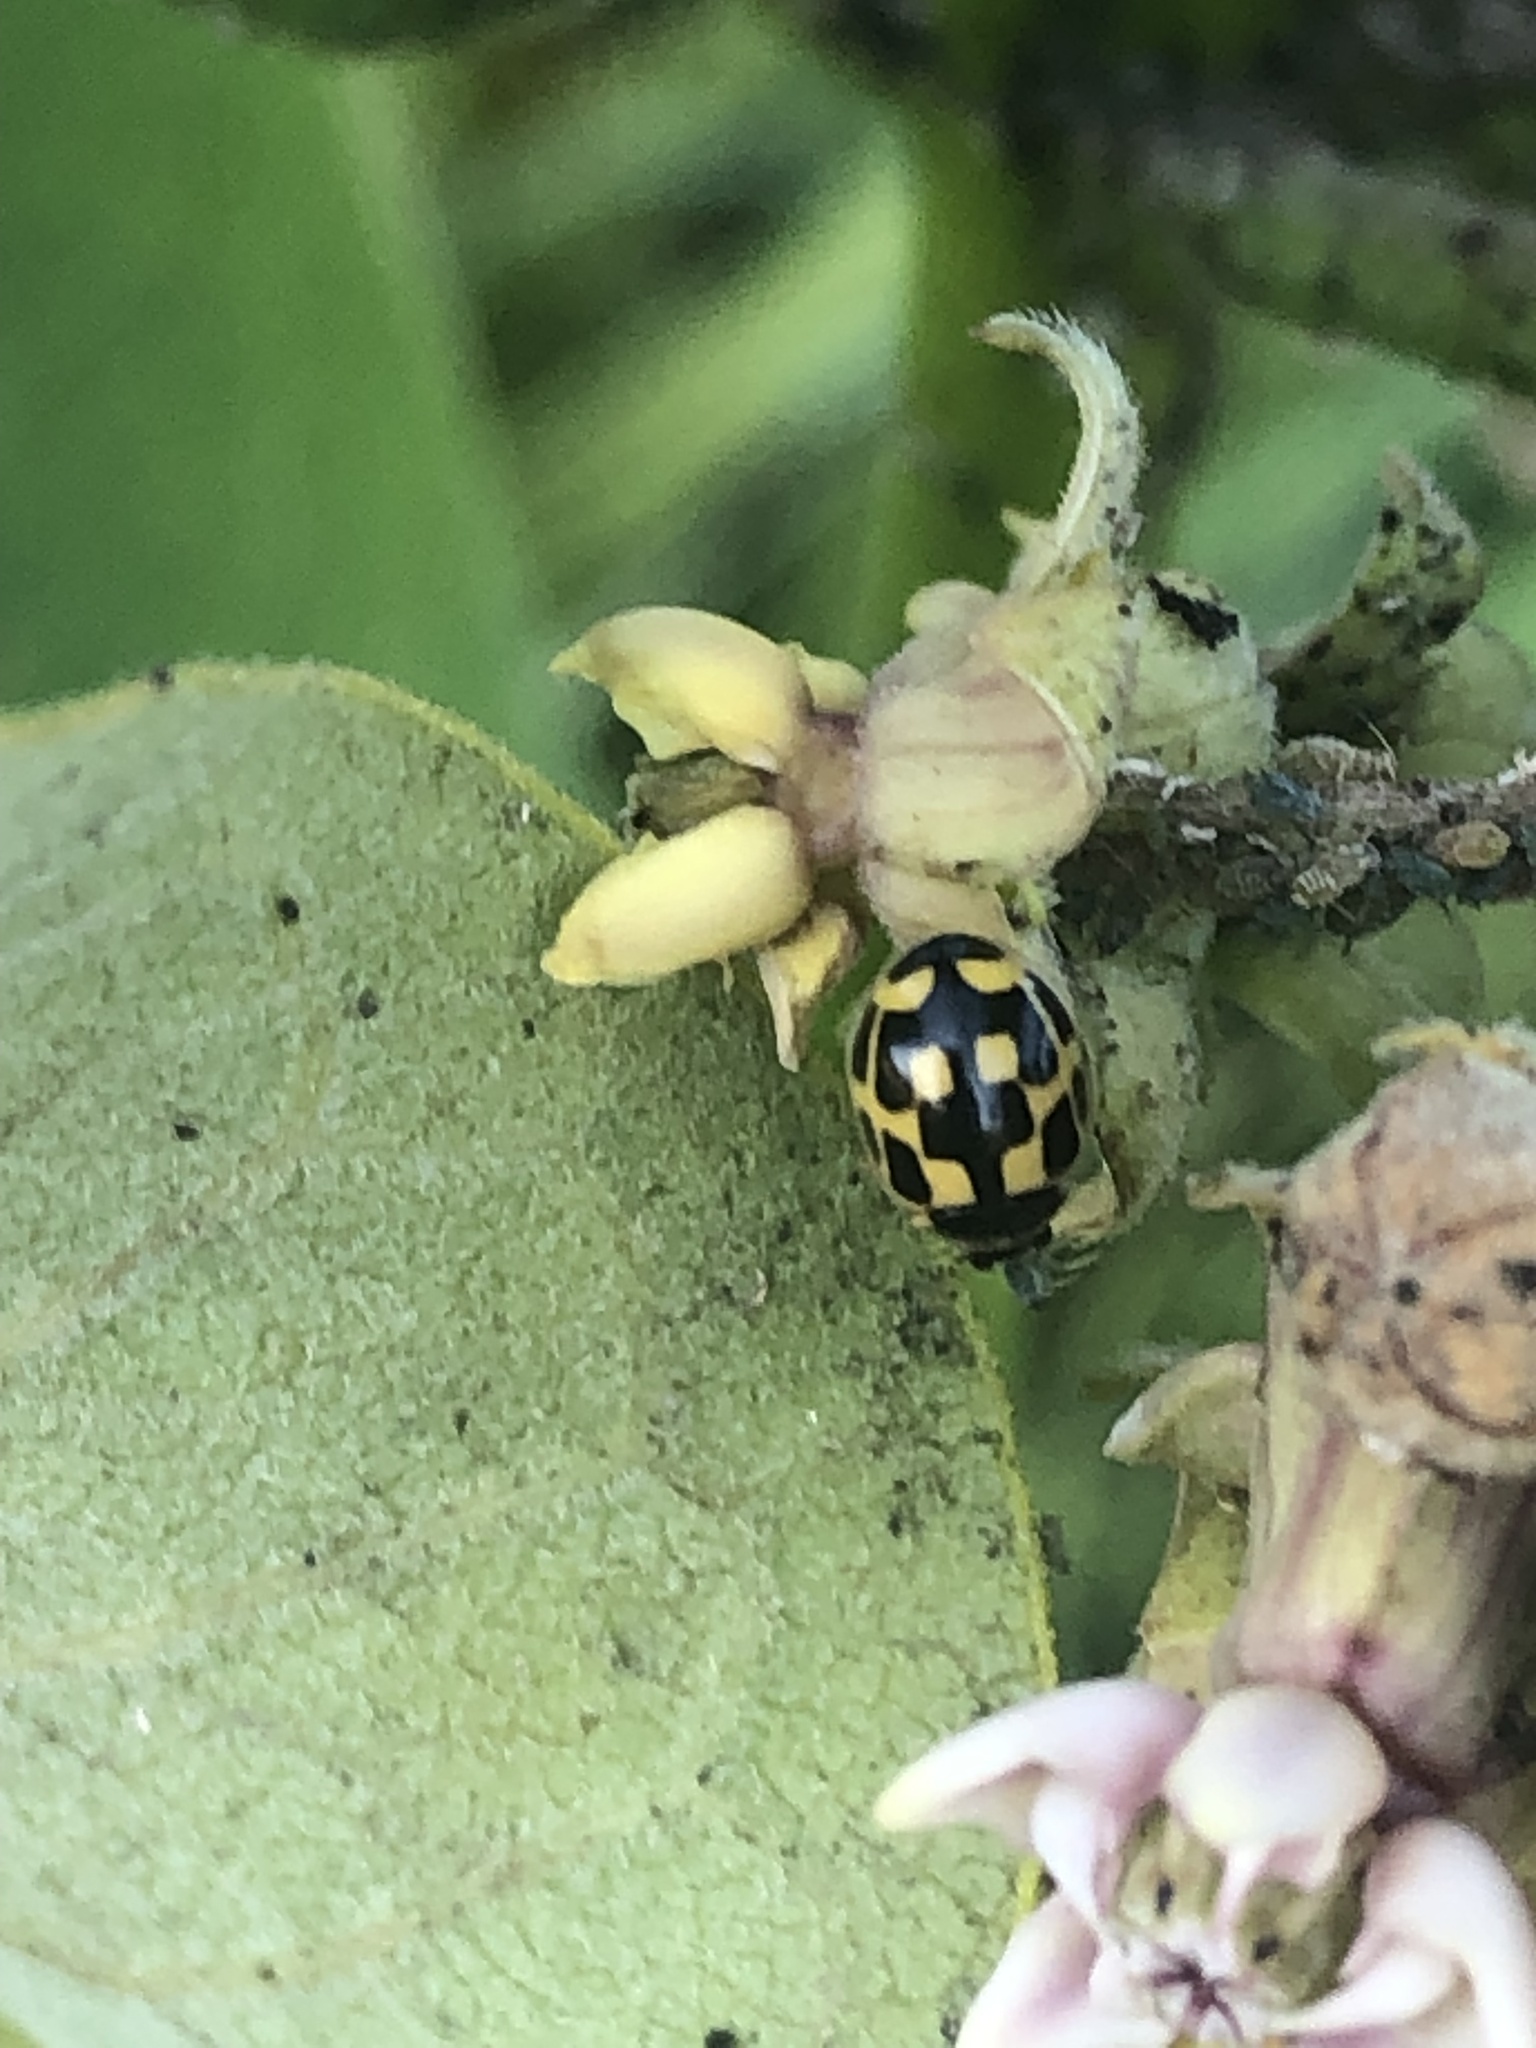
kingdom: Animalia
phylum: Arthropoda
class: Insecta
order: Coleoptera
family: Coccinellidae
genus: Propylaea
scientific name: Propylaea quatuordecimpunctata
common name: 14-spotted ladybird beetle
